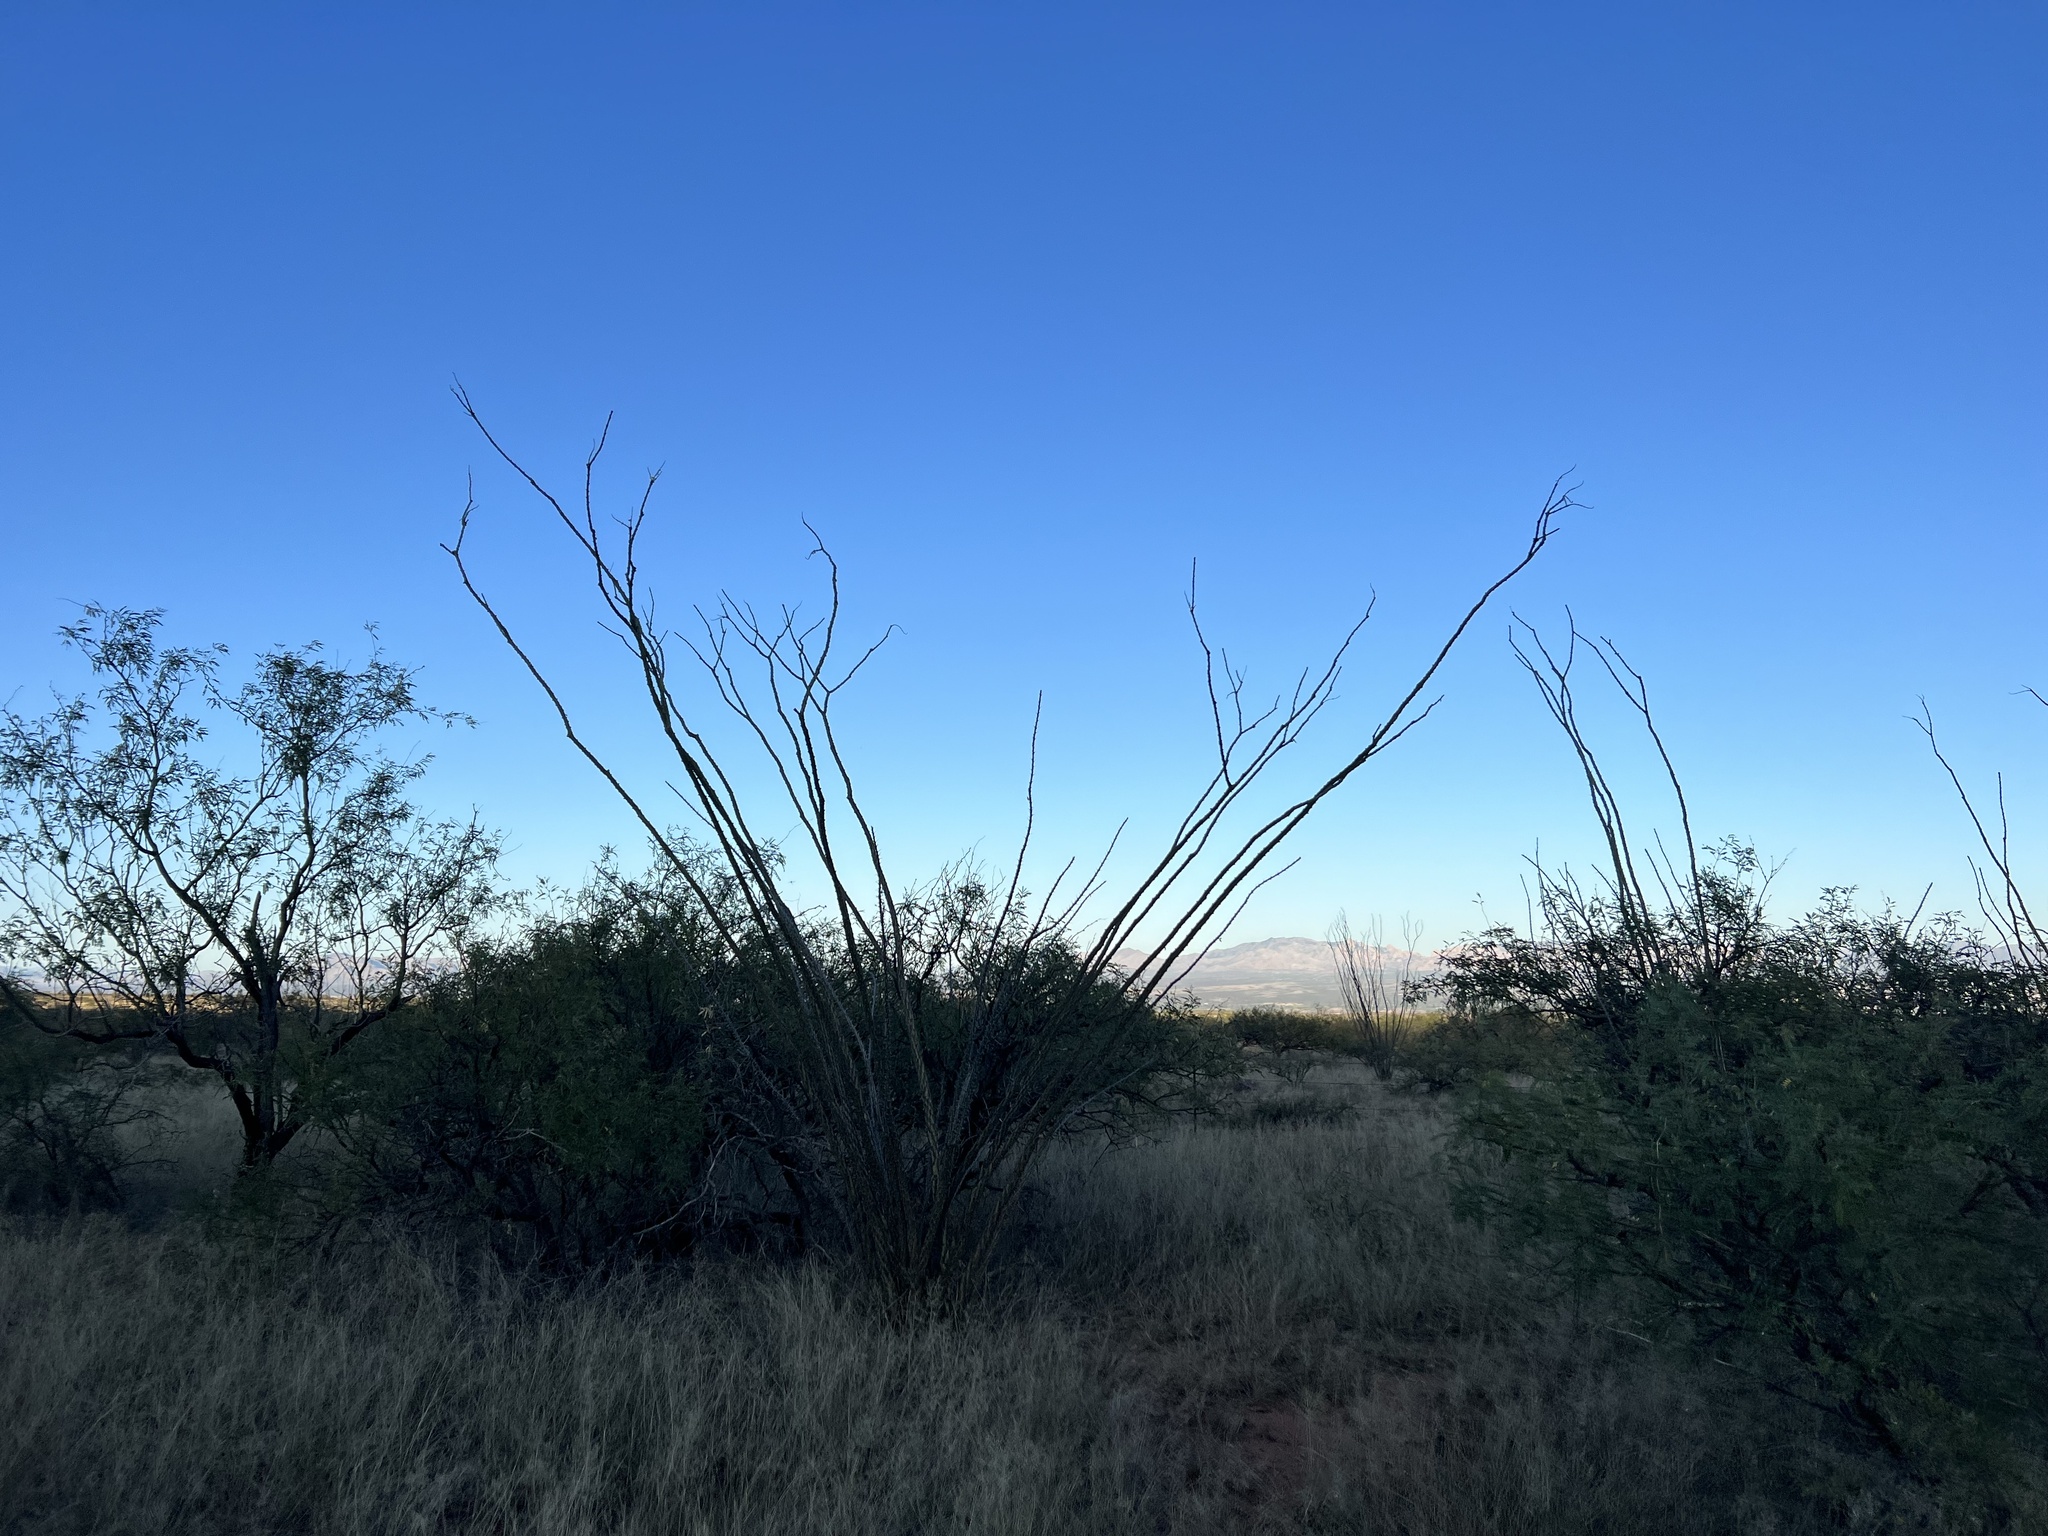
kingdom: Plantae
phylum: Tracheophyta
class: Magnoliopsida
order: Ericales
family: Fouquieriaceae
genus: Fouquieria
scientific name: Fouquieria splendens
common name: Vine-cactus
